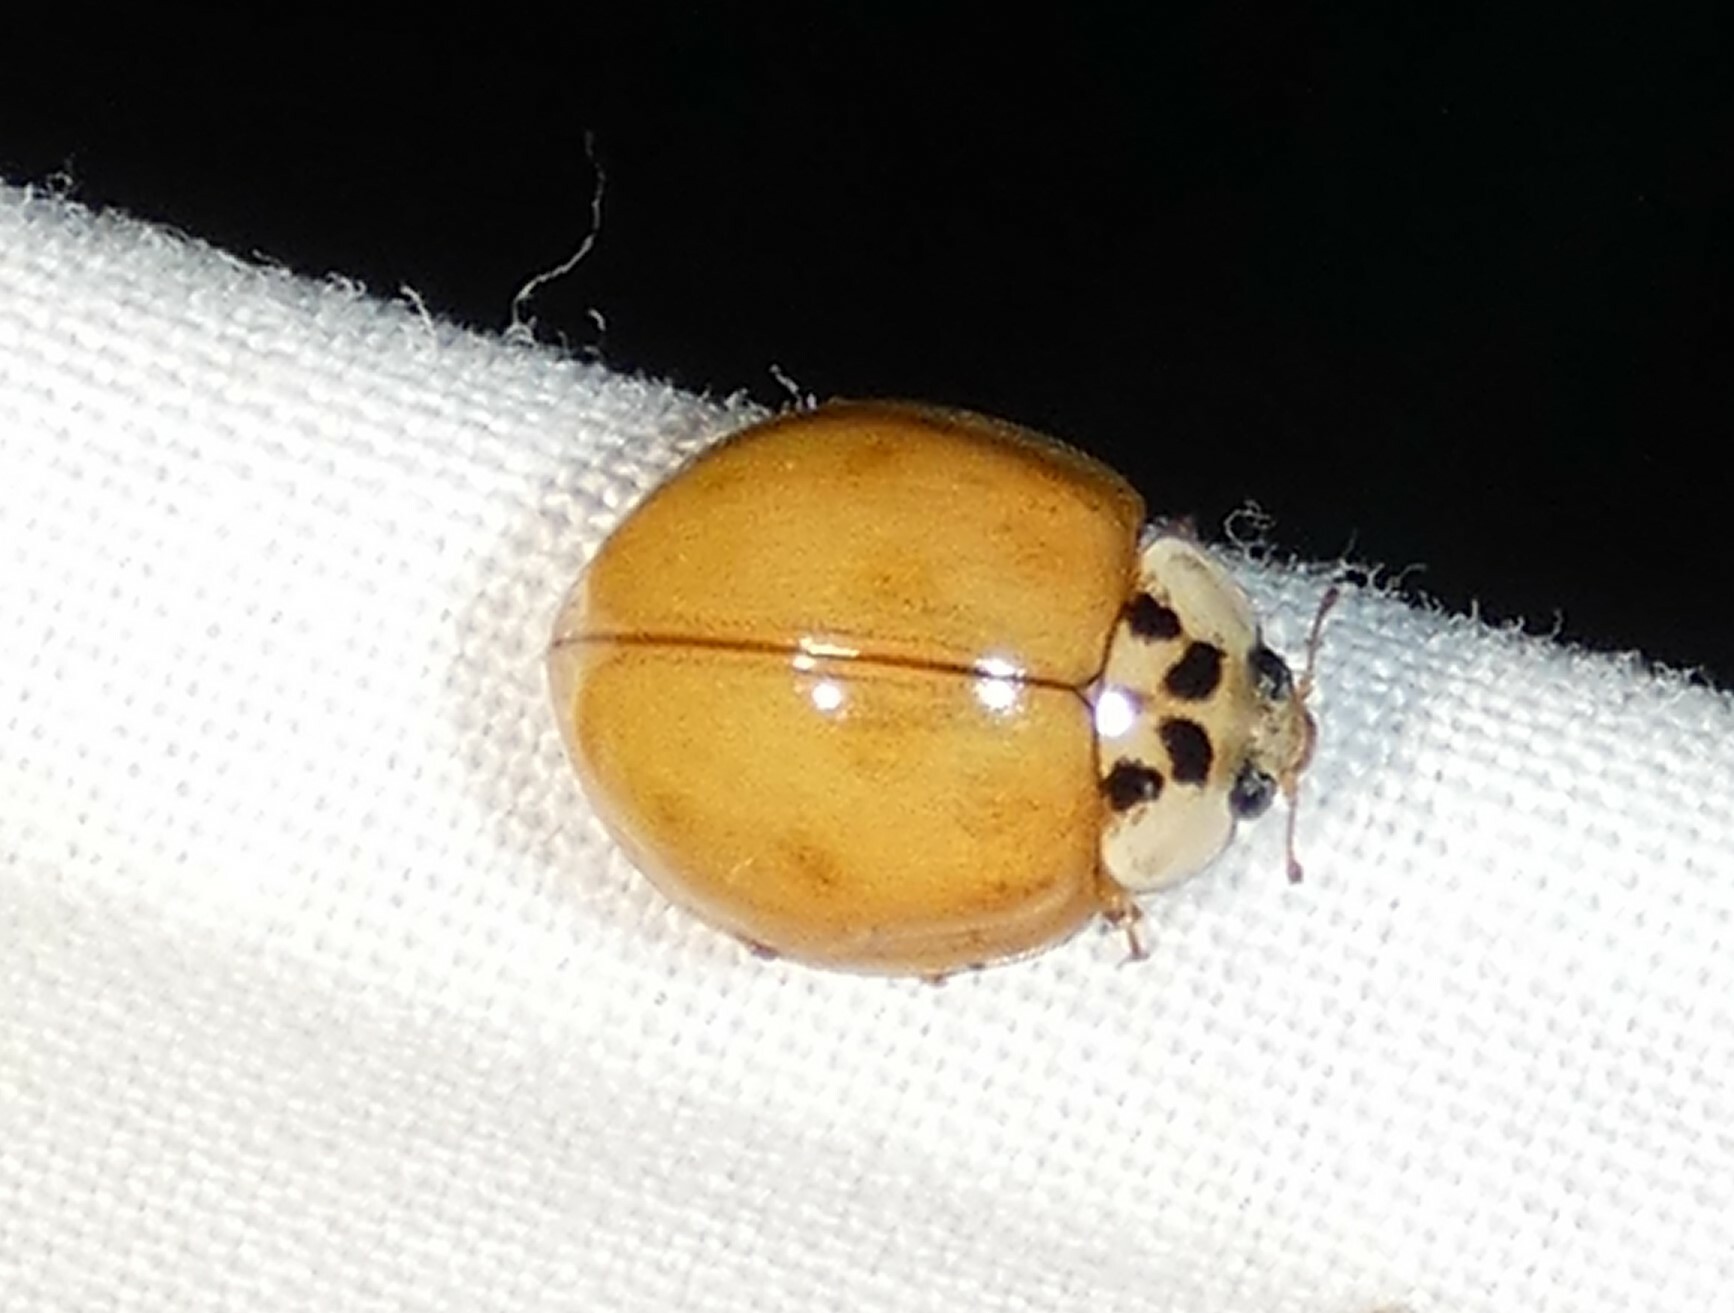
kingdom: Animalia
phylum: Arthropoda
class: Insecta
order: Coleoptera
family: Coccinellidae
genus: Harmonia
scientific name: Harmonia axyridis
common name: Harlequin ladybird
